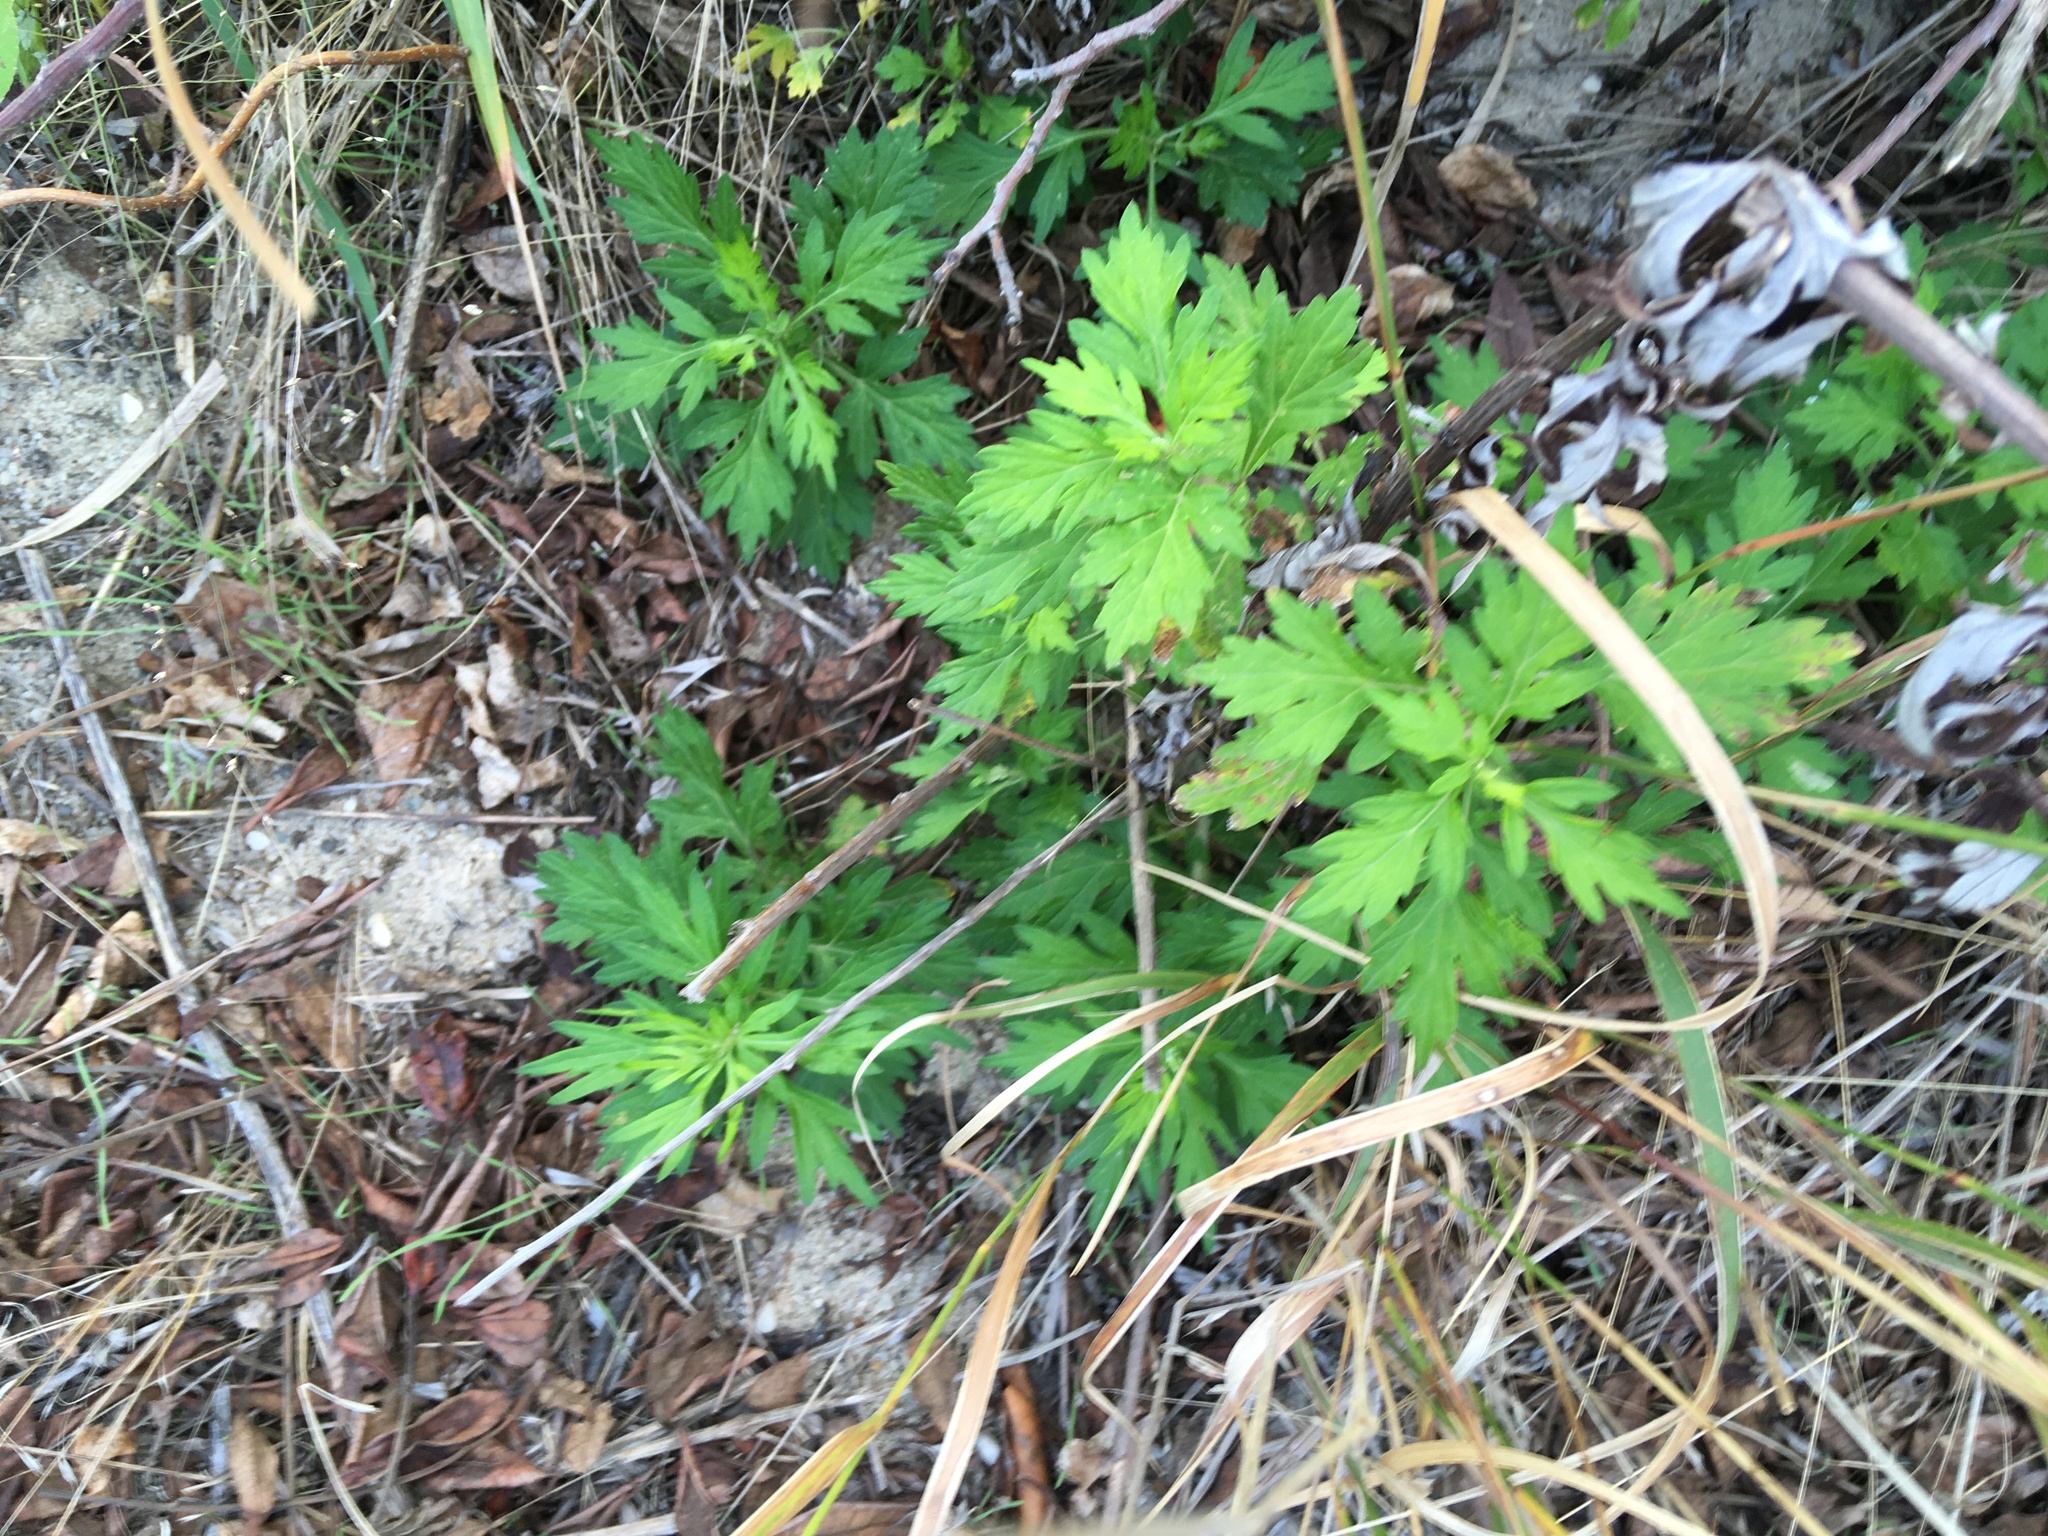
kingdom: Plantae
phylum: Tracheophyta
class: Magnoliopsida
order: Asterales
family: Asteraceae
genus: Artemisia
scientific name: Artemisia vulgaris
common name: Mugwort
